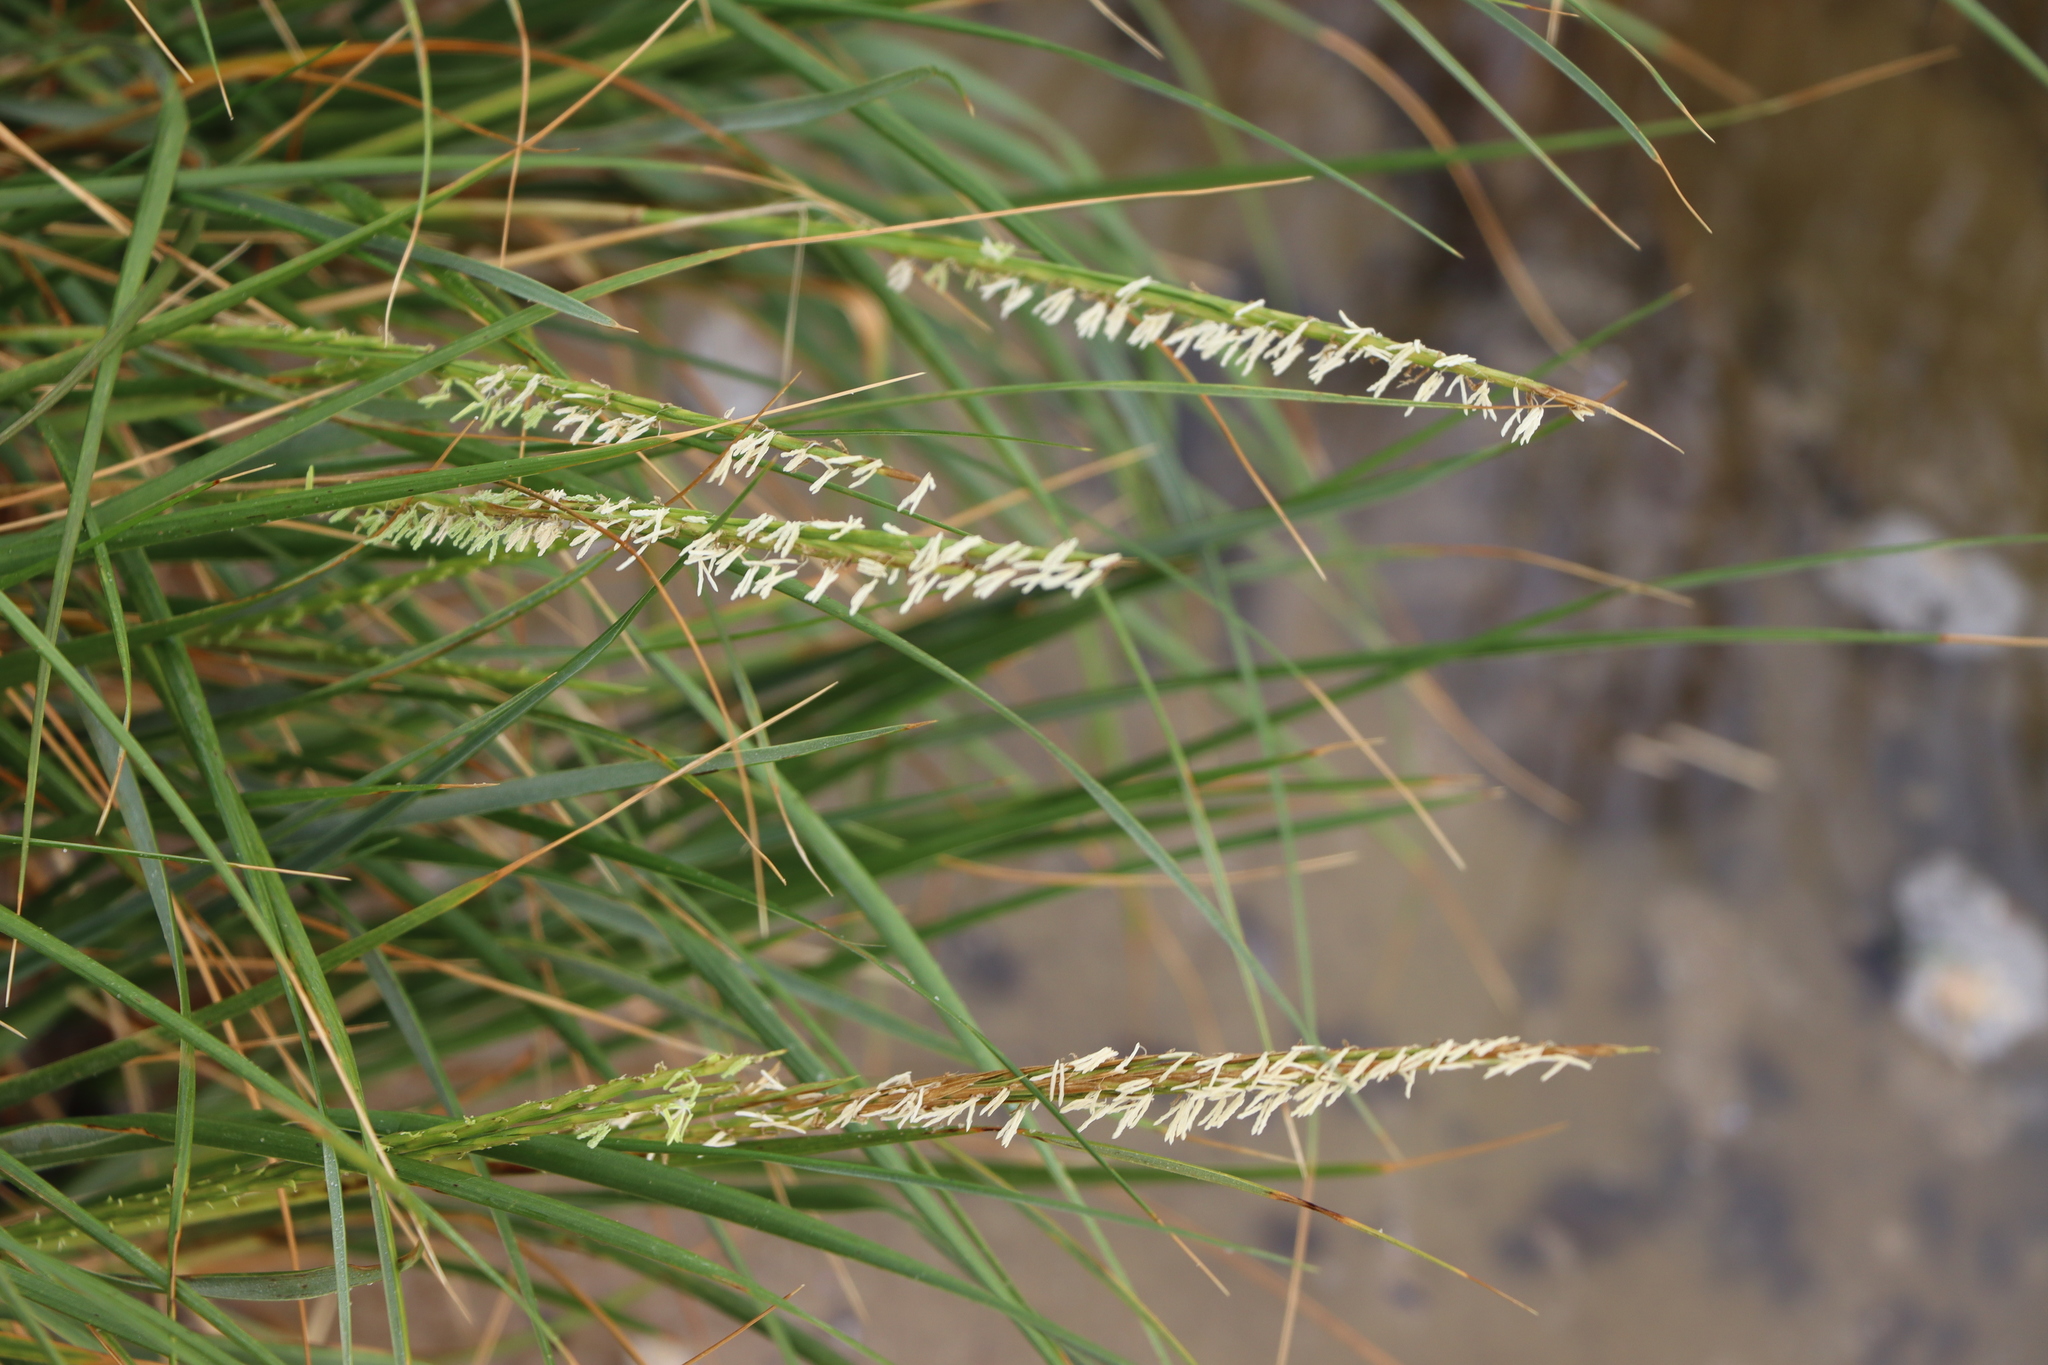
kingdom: Plantae
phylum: Tracheophyta
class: Liliopsida
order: Poales
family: Poaceae
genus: Sporobolus
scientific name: Sporobolus montevidensis
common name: Montevideo dropseed
